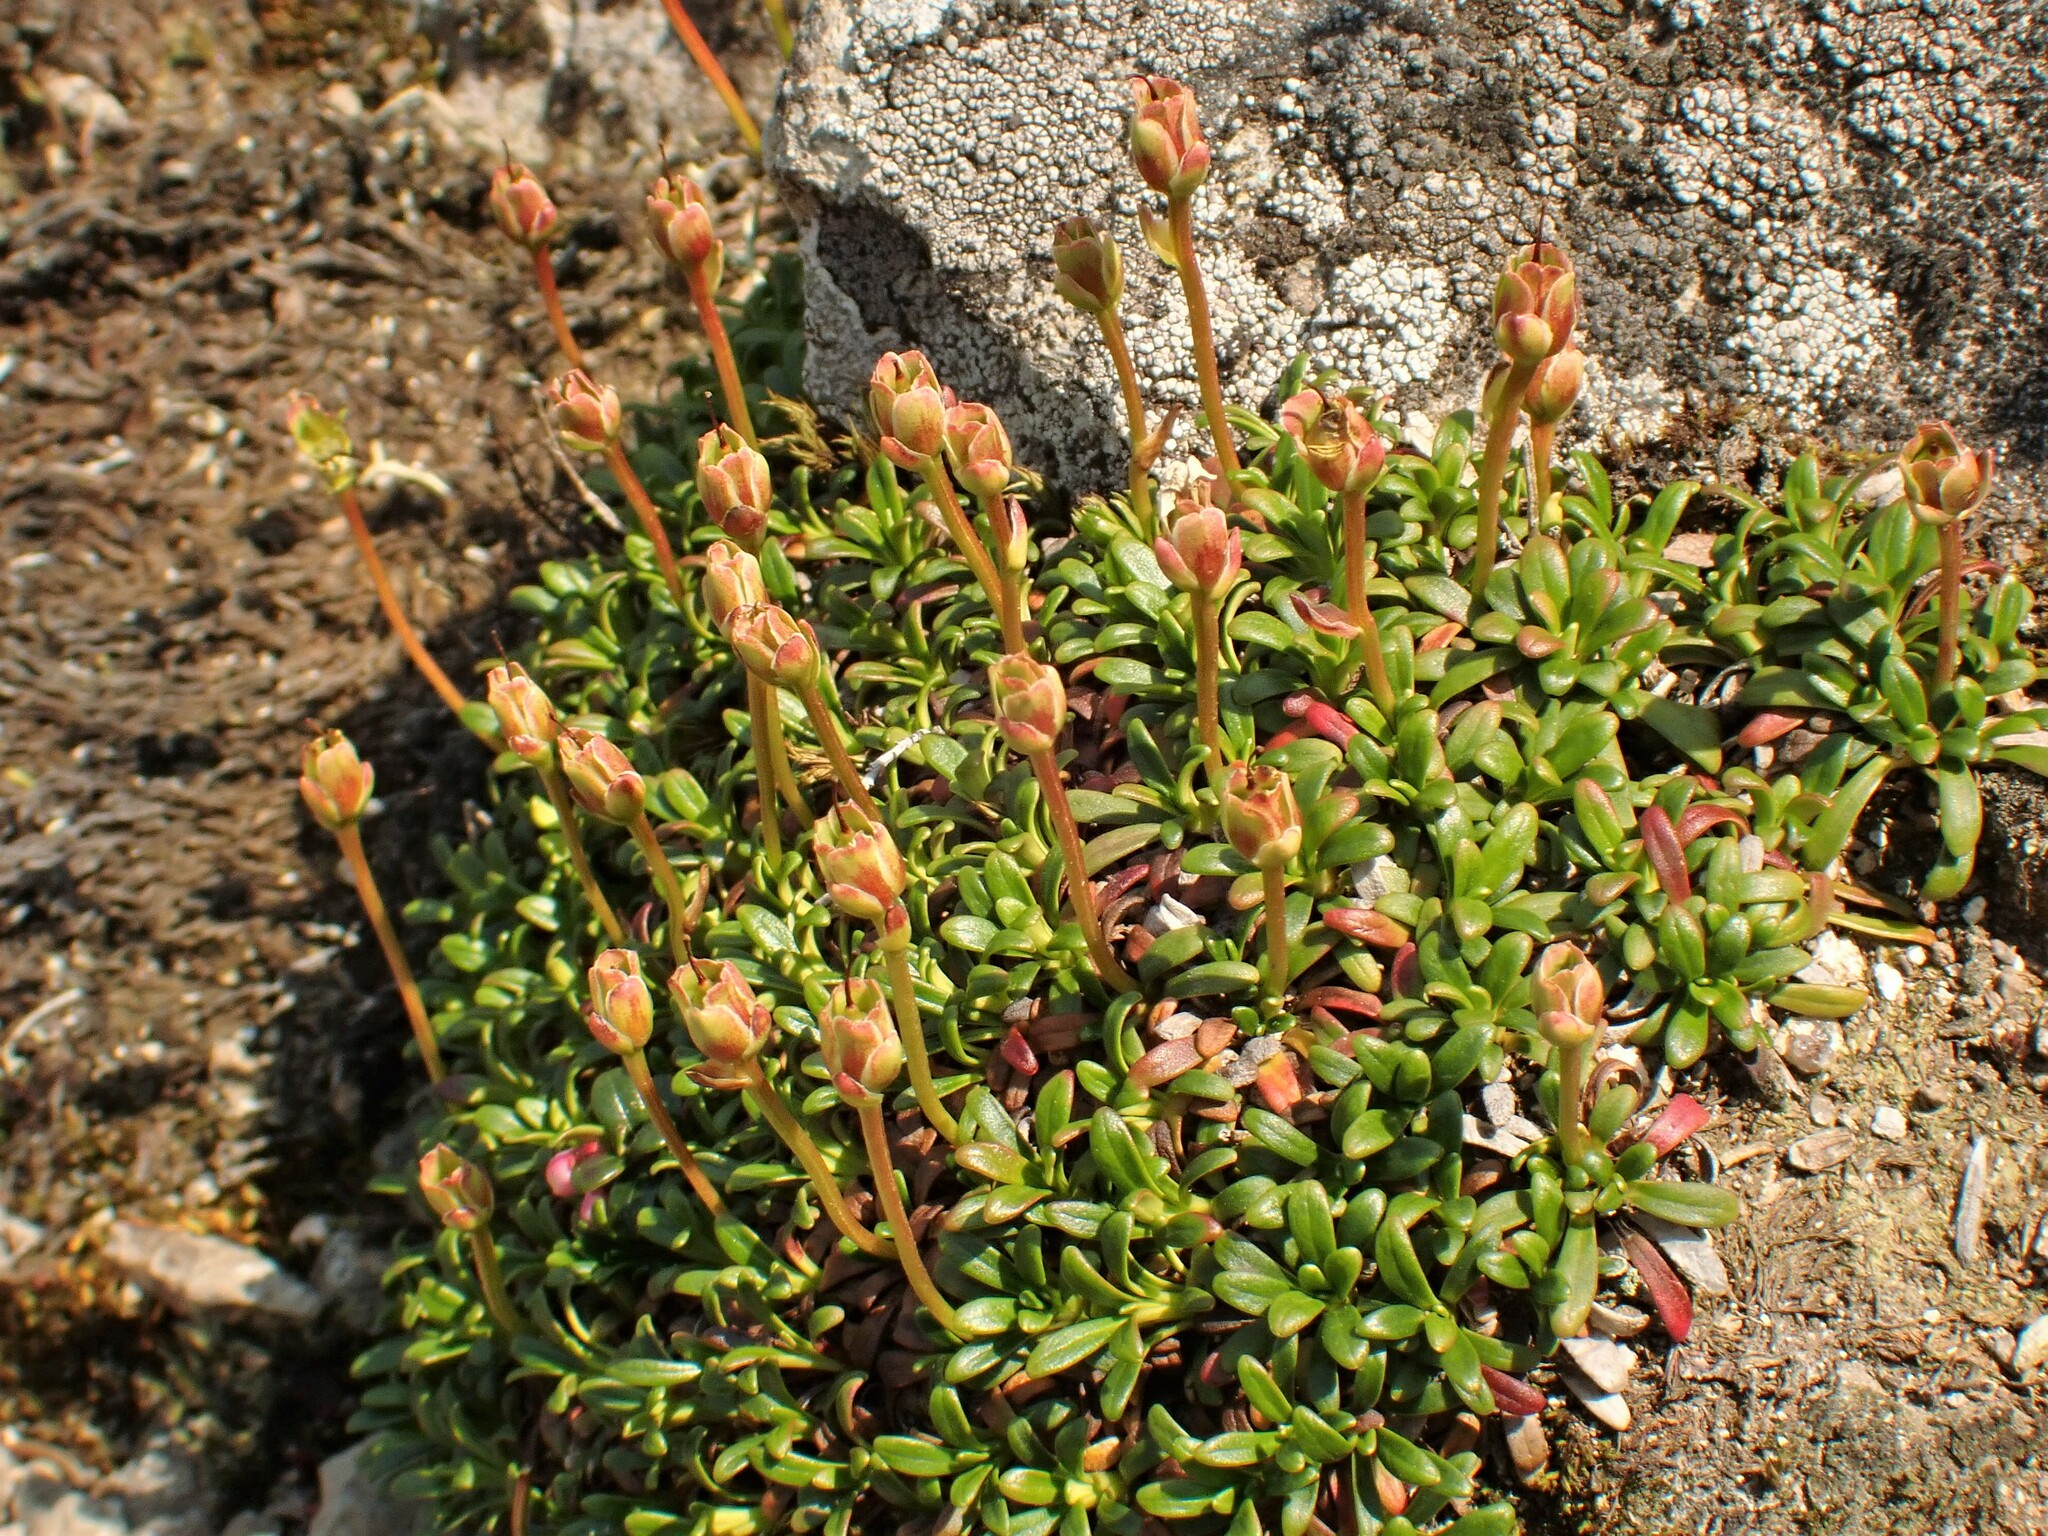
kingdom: Plantae
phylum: Tracheophyta
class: Magnoliopsida
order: Ericales
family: Diapensiaceae
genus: Diapensia
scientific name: Diapensia lapponica
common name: Diapensia
